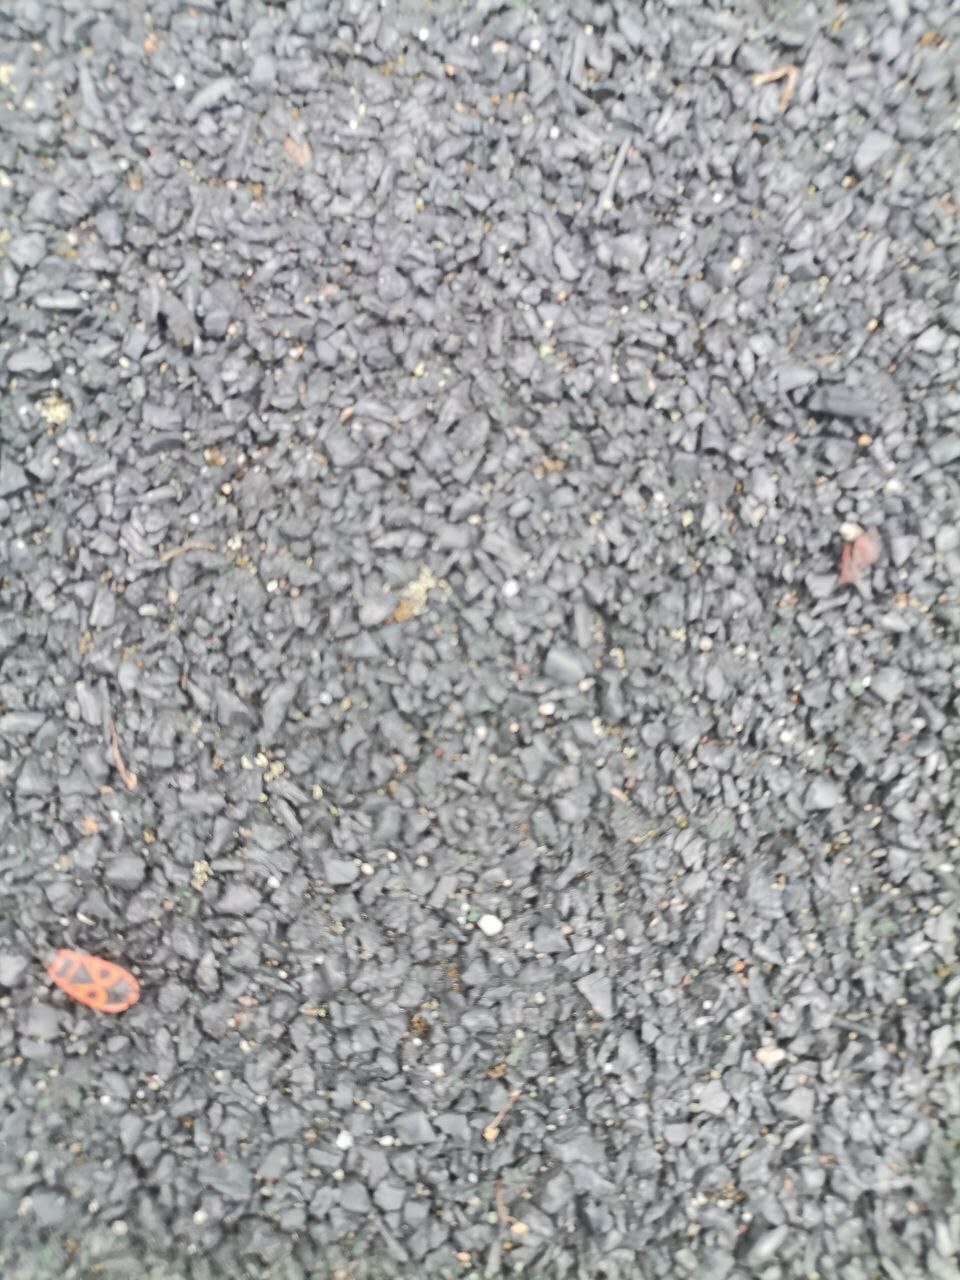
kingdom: Animalia
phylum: Arthropoda
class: Insecta
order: Hemiptera
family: Pyrrhocoridae
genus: Pyrrhocoris
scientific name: Pyrrhocoris apterus
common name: Firebug
